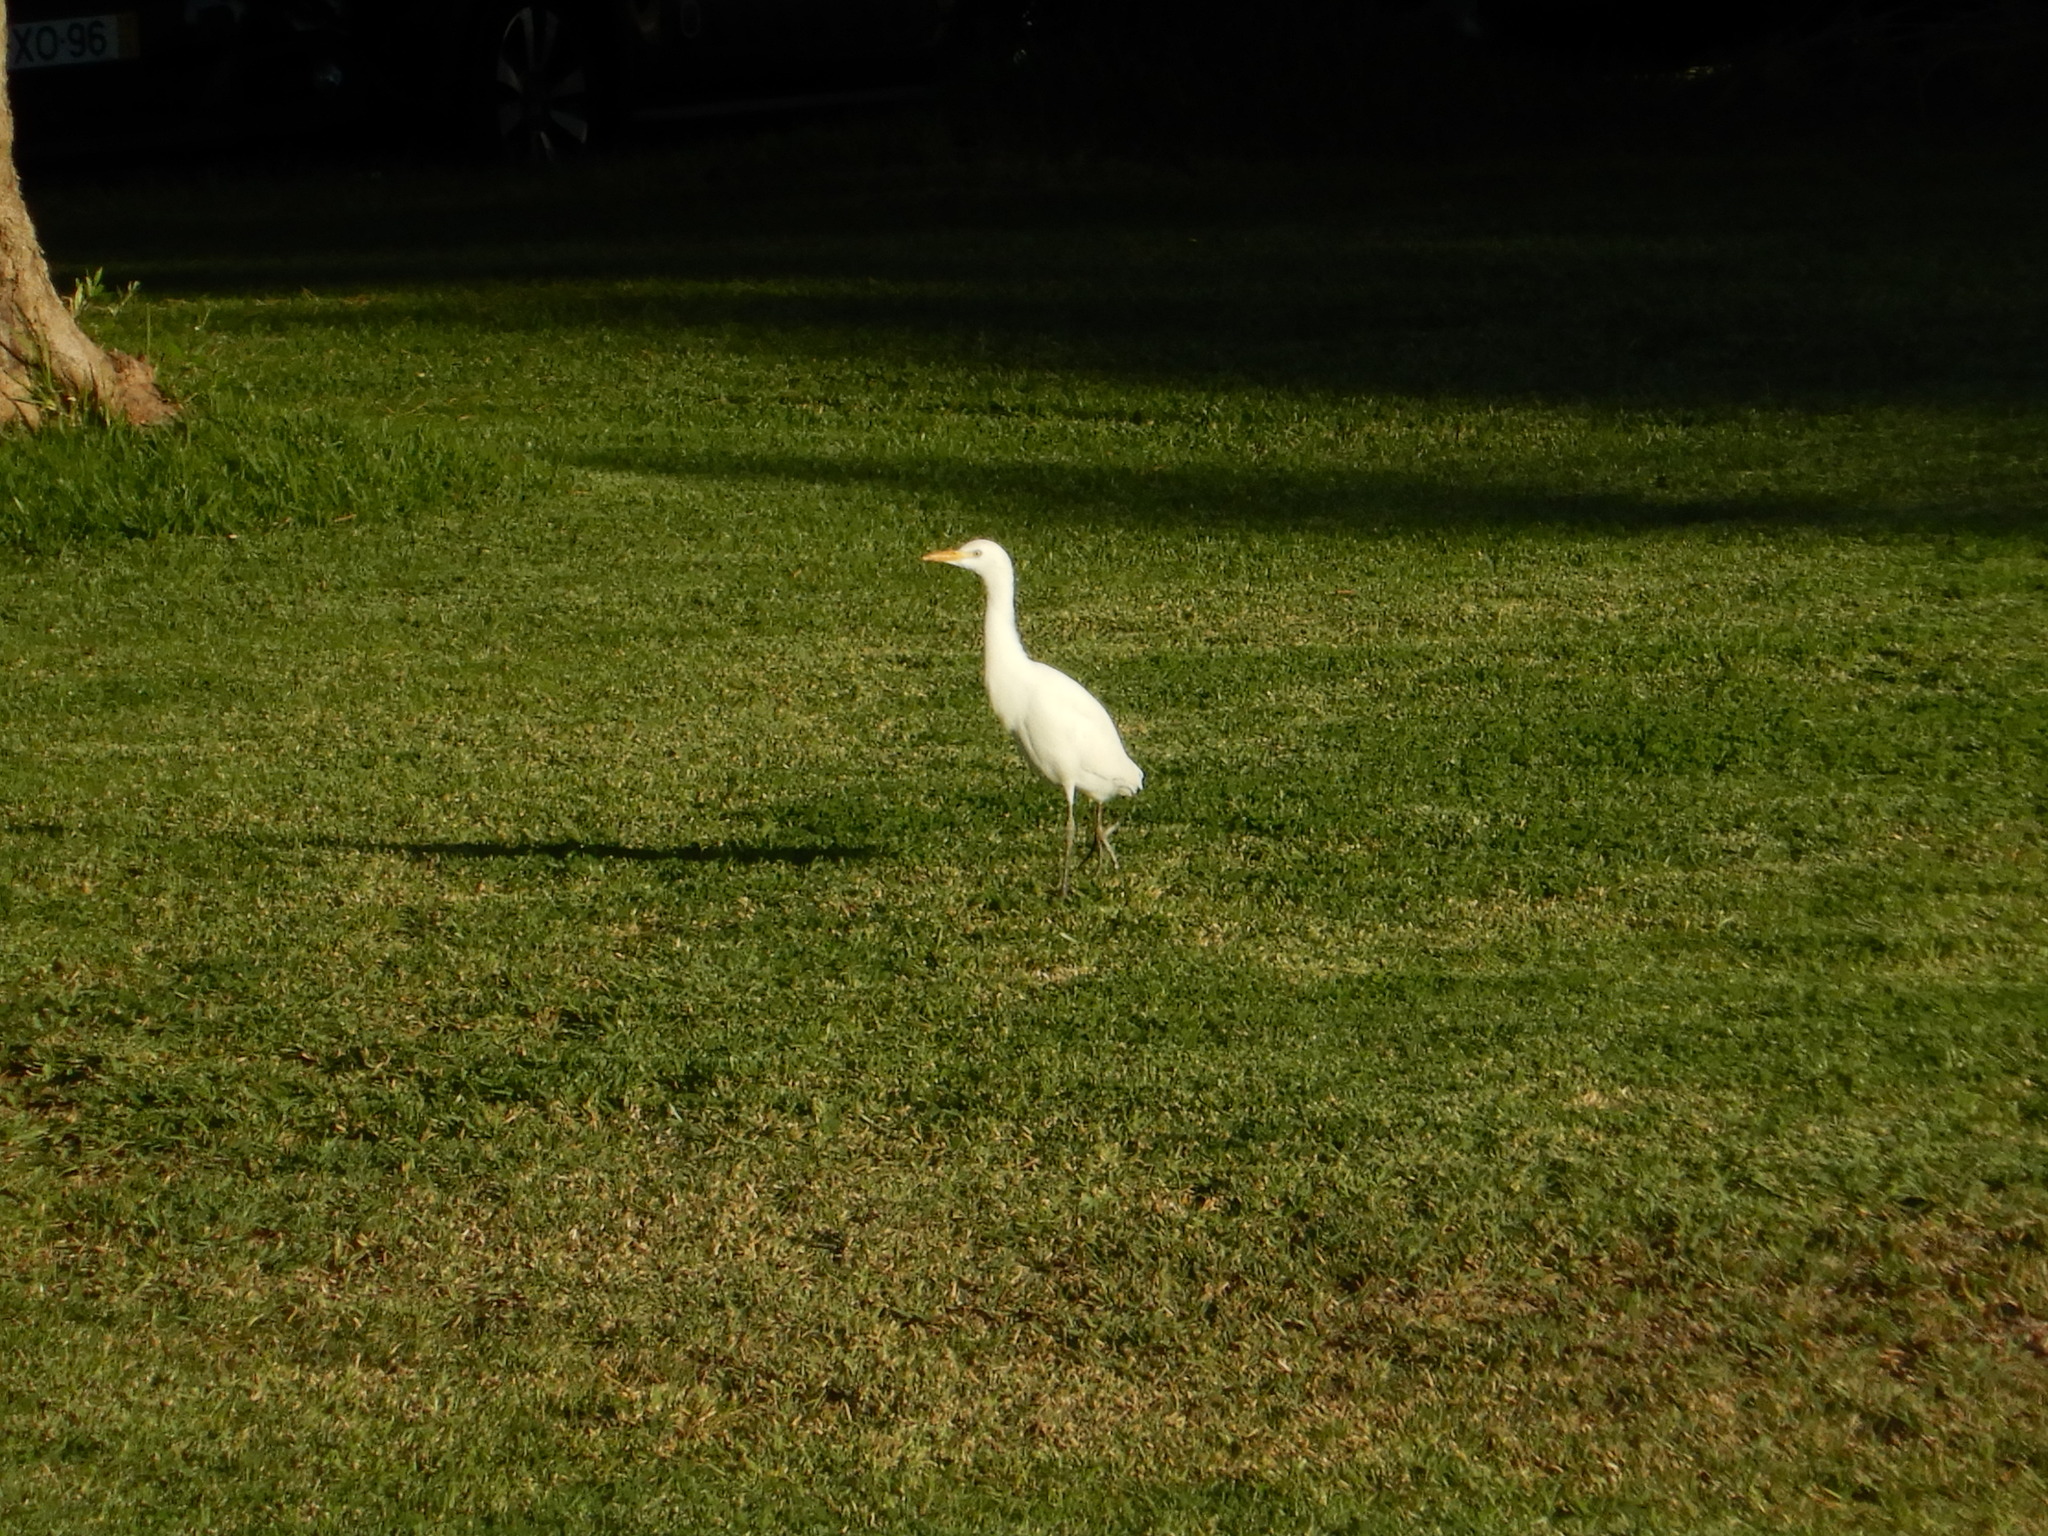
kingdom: Animalia
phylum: Chordata
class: Aves
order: Pelecaniformes
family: Ardeidae
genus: Bubulcus
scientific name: Bubulcus ibis
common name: Cattle egret
